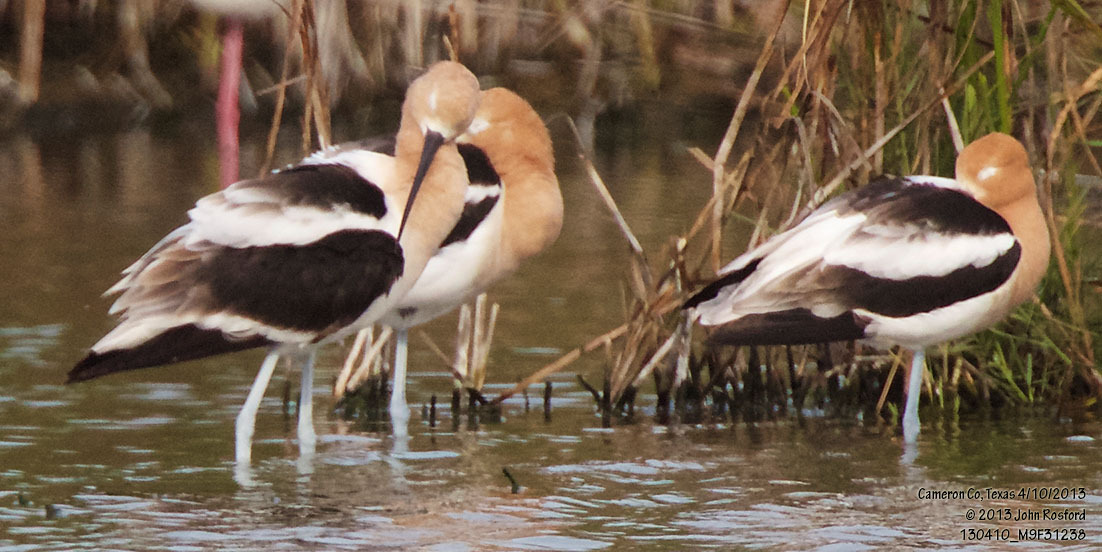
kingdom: Animalia
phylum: Chordata
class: Aves
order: Charadriiformes
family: Recurvirostridae
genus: Recurvirostra
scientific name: Recurvirostra americana
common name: American avocet
